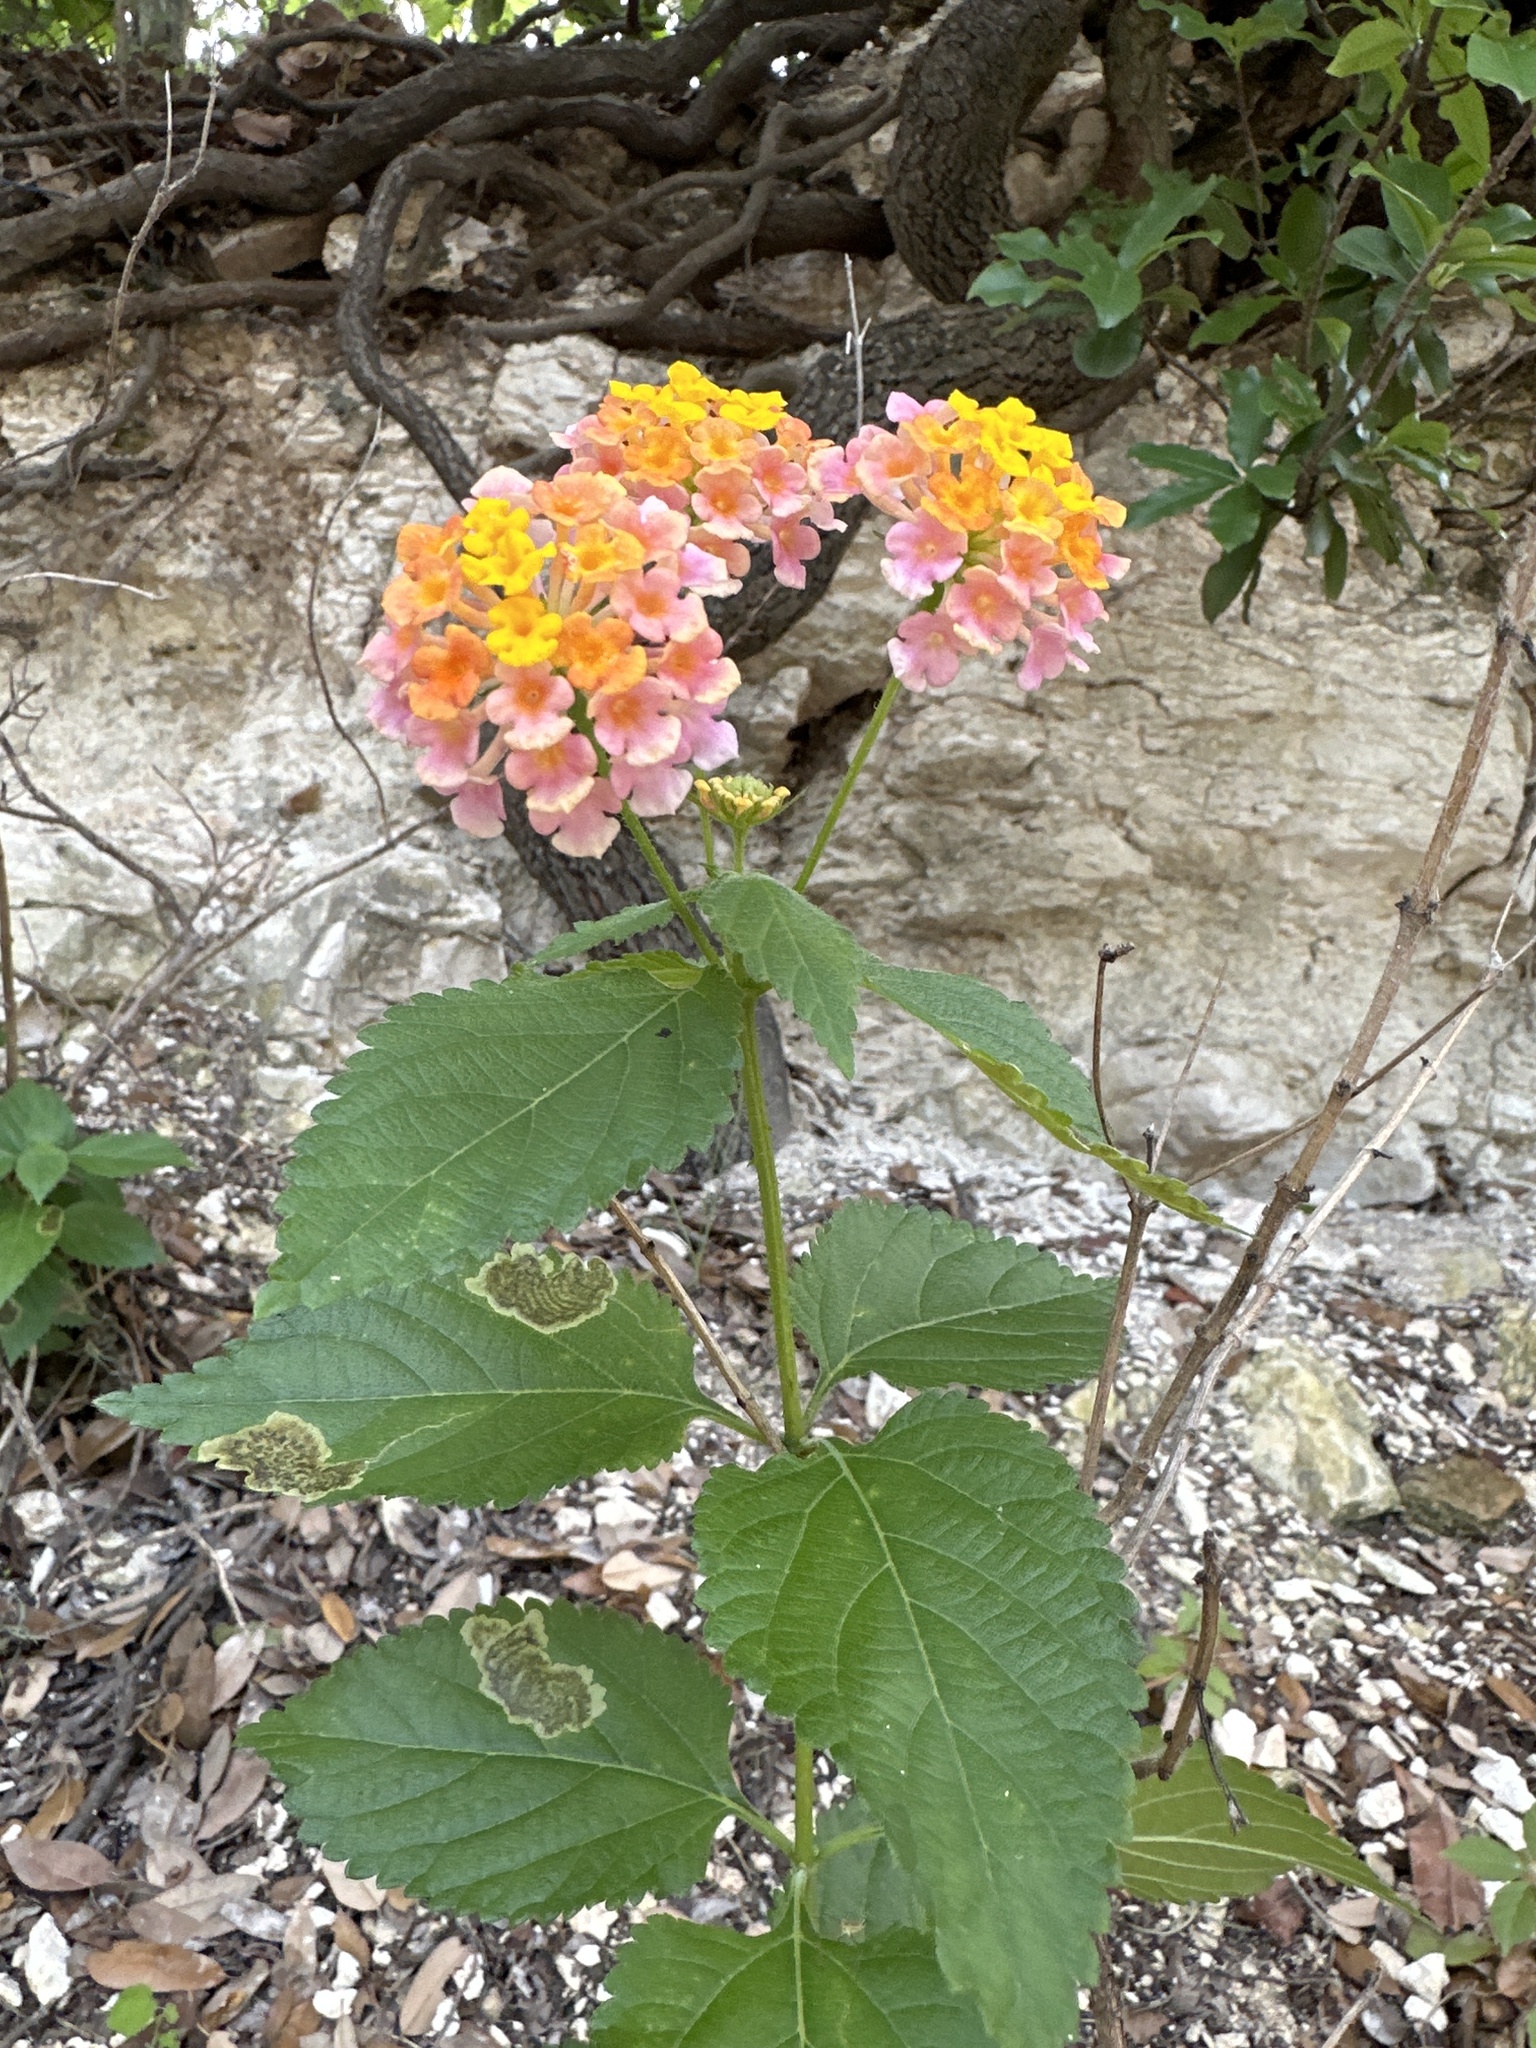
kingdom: Plantae
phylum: Tracheophyta
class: Magnoliopsida
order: Lamiales
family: Verbenaceae
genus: Lantana
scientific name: Lantana strigocamara
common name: Lantana
